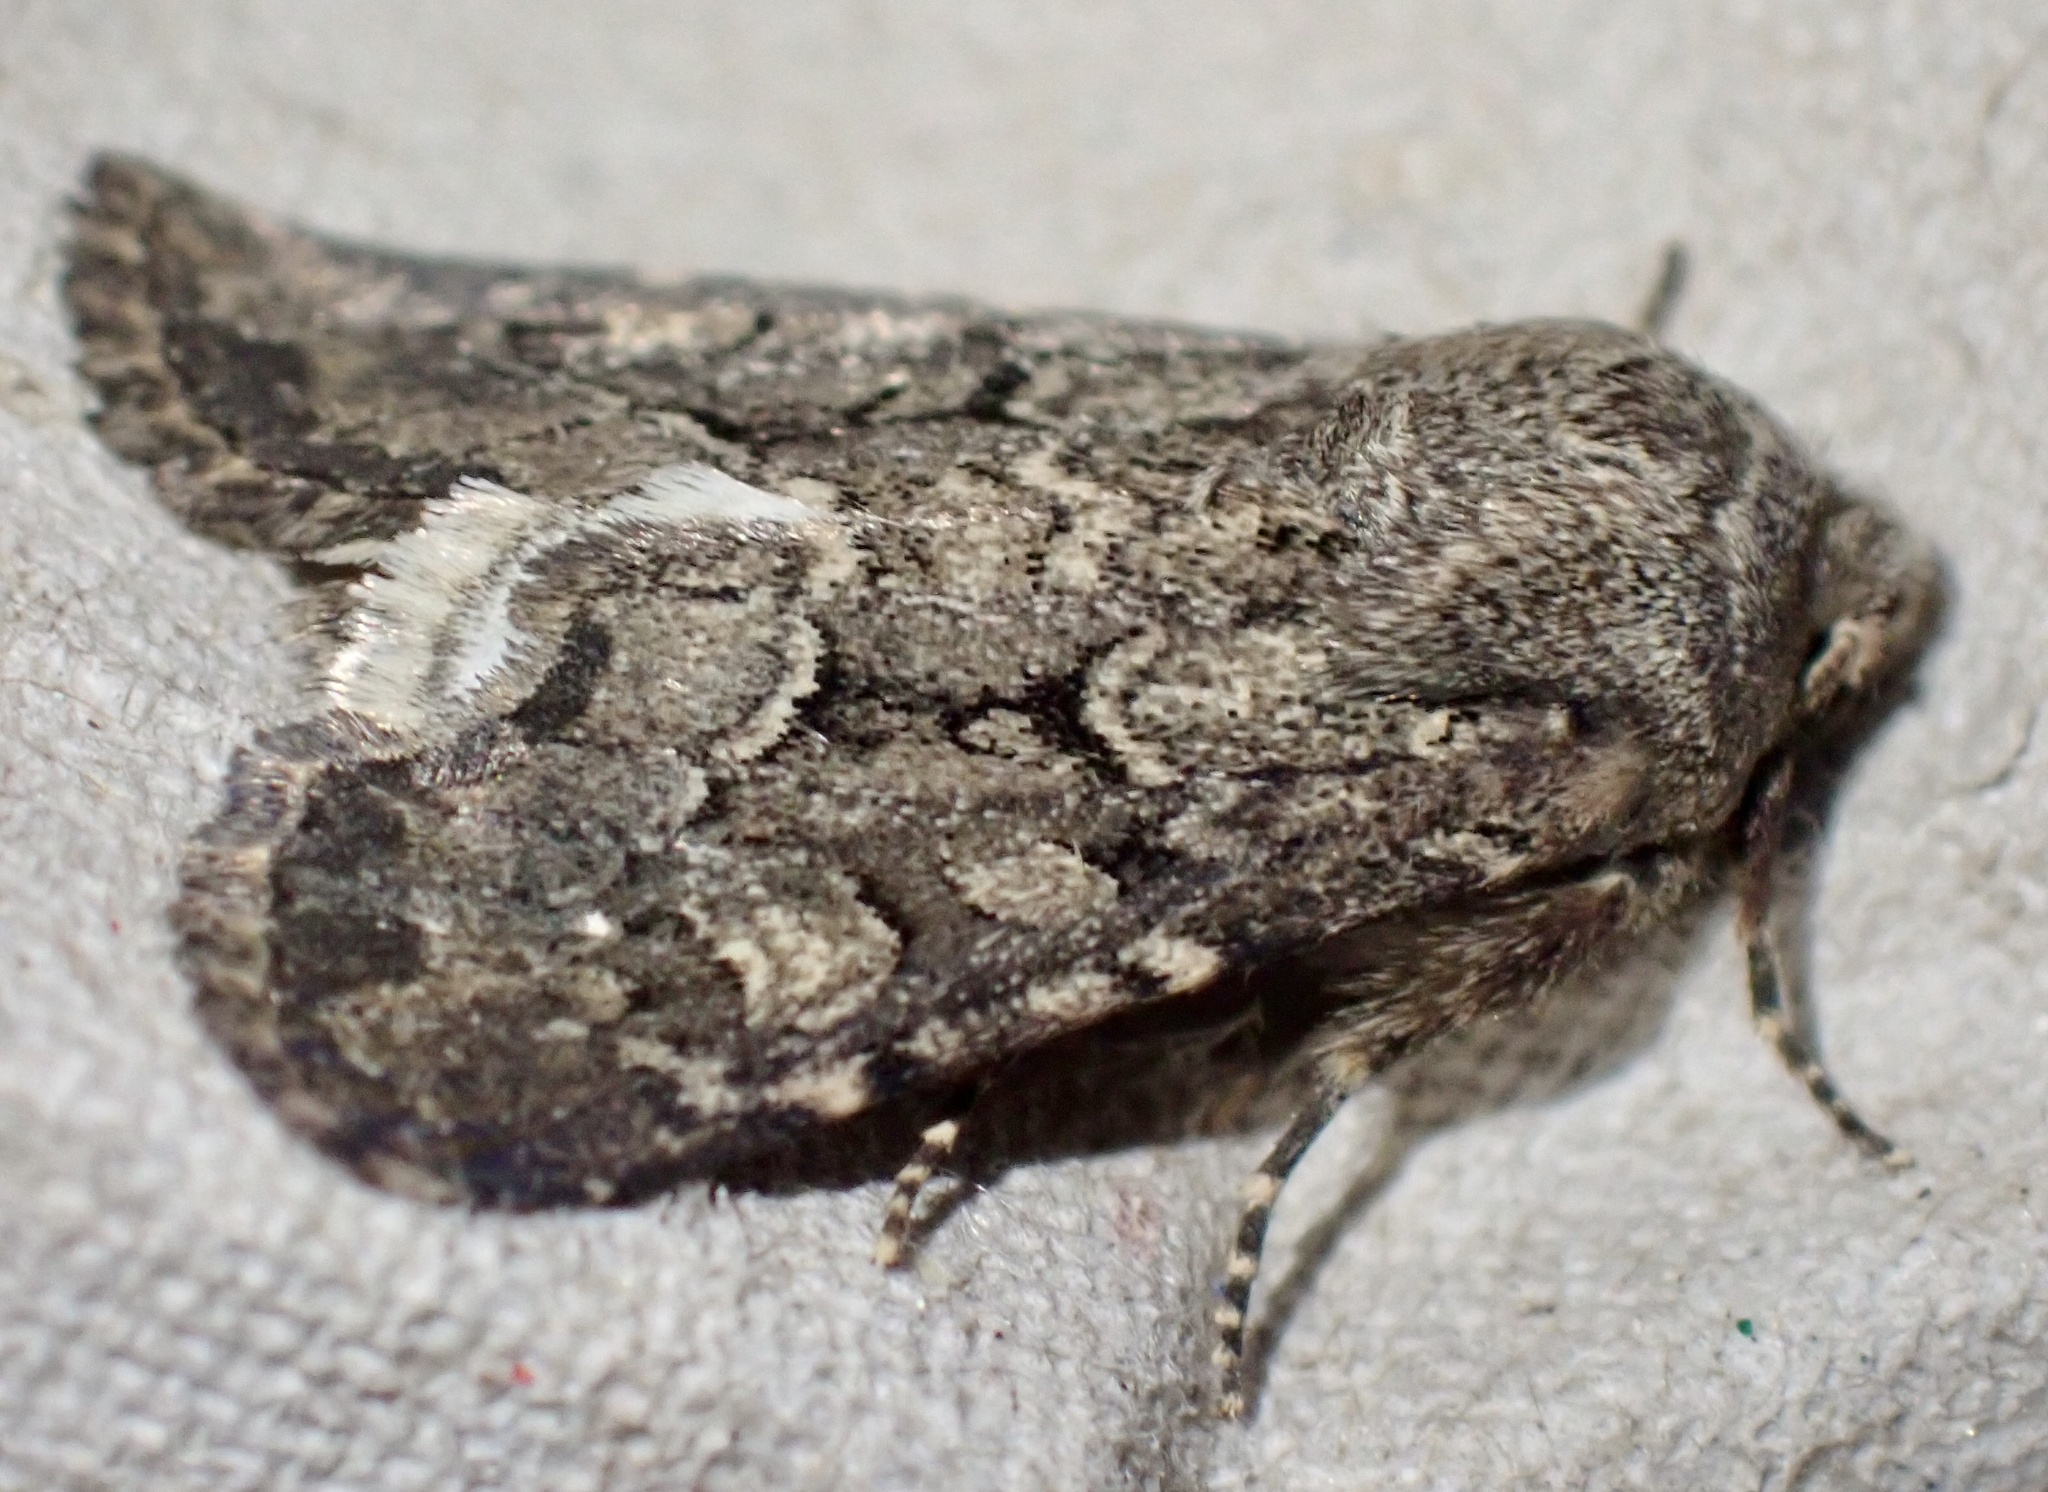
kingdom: Animalia
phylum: Arthropoda
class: Insecta
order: Lepidoptera
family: Noctuidae
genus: Luperina
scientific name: Luperina testacea
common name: Flounced rustic
